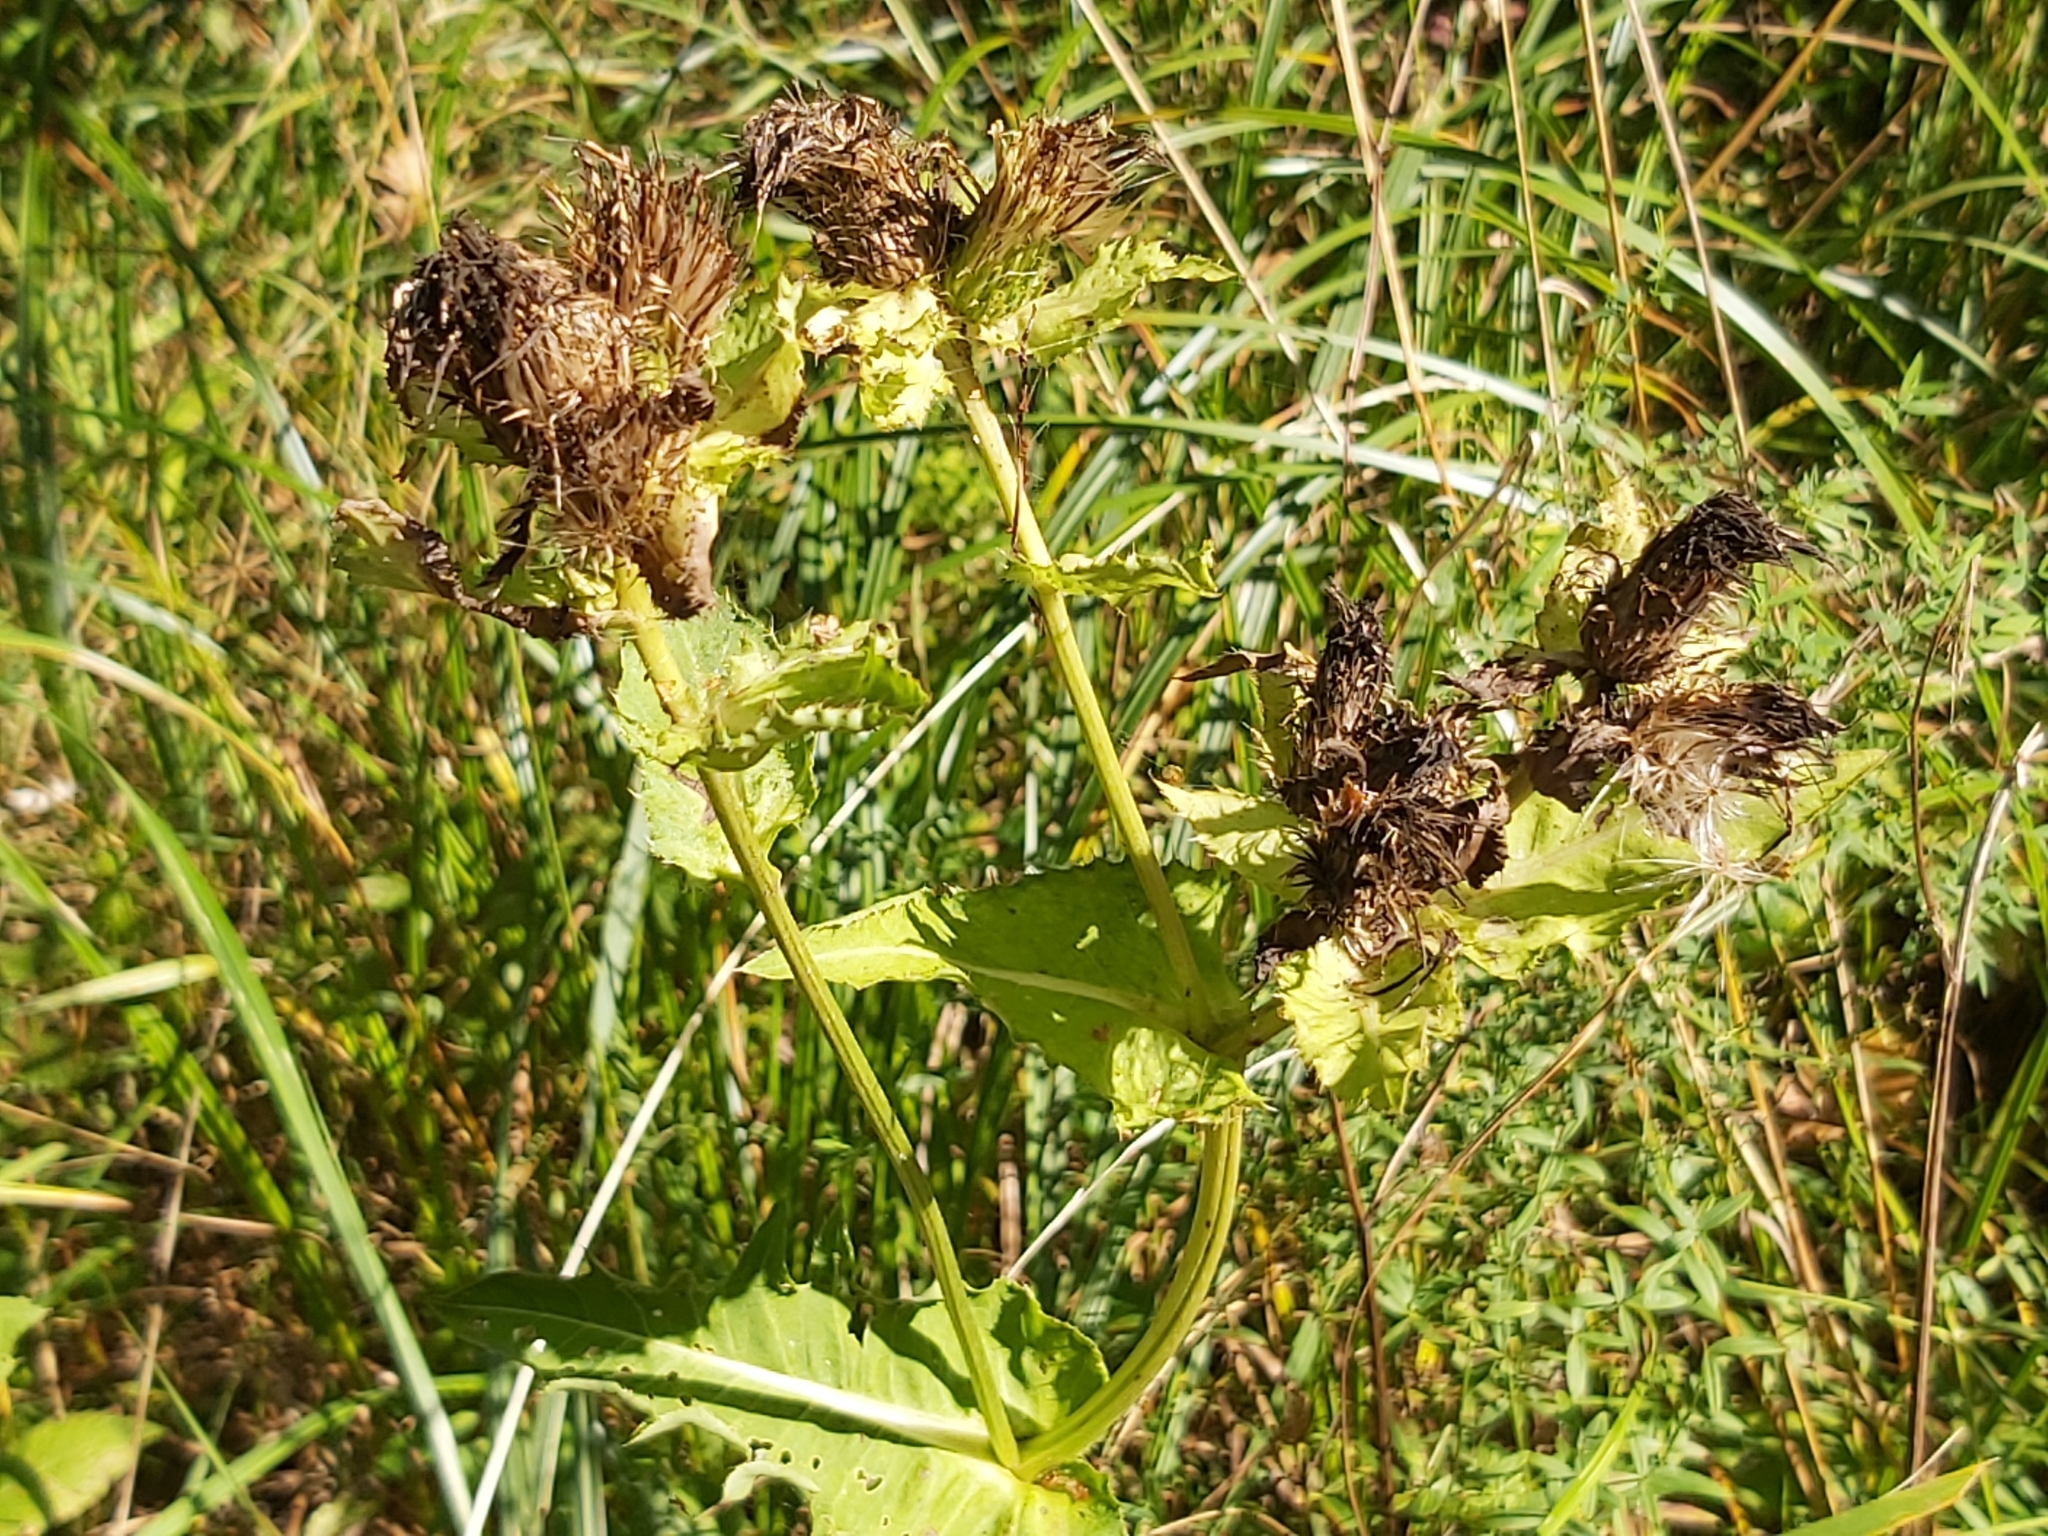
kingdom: Plantae
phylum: Tracheophyta
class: Magnoliopsida
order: Asterales
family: Asteraceae
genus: Cirsium
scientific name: Cirsium oleraceum
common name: Cabbage thistle
